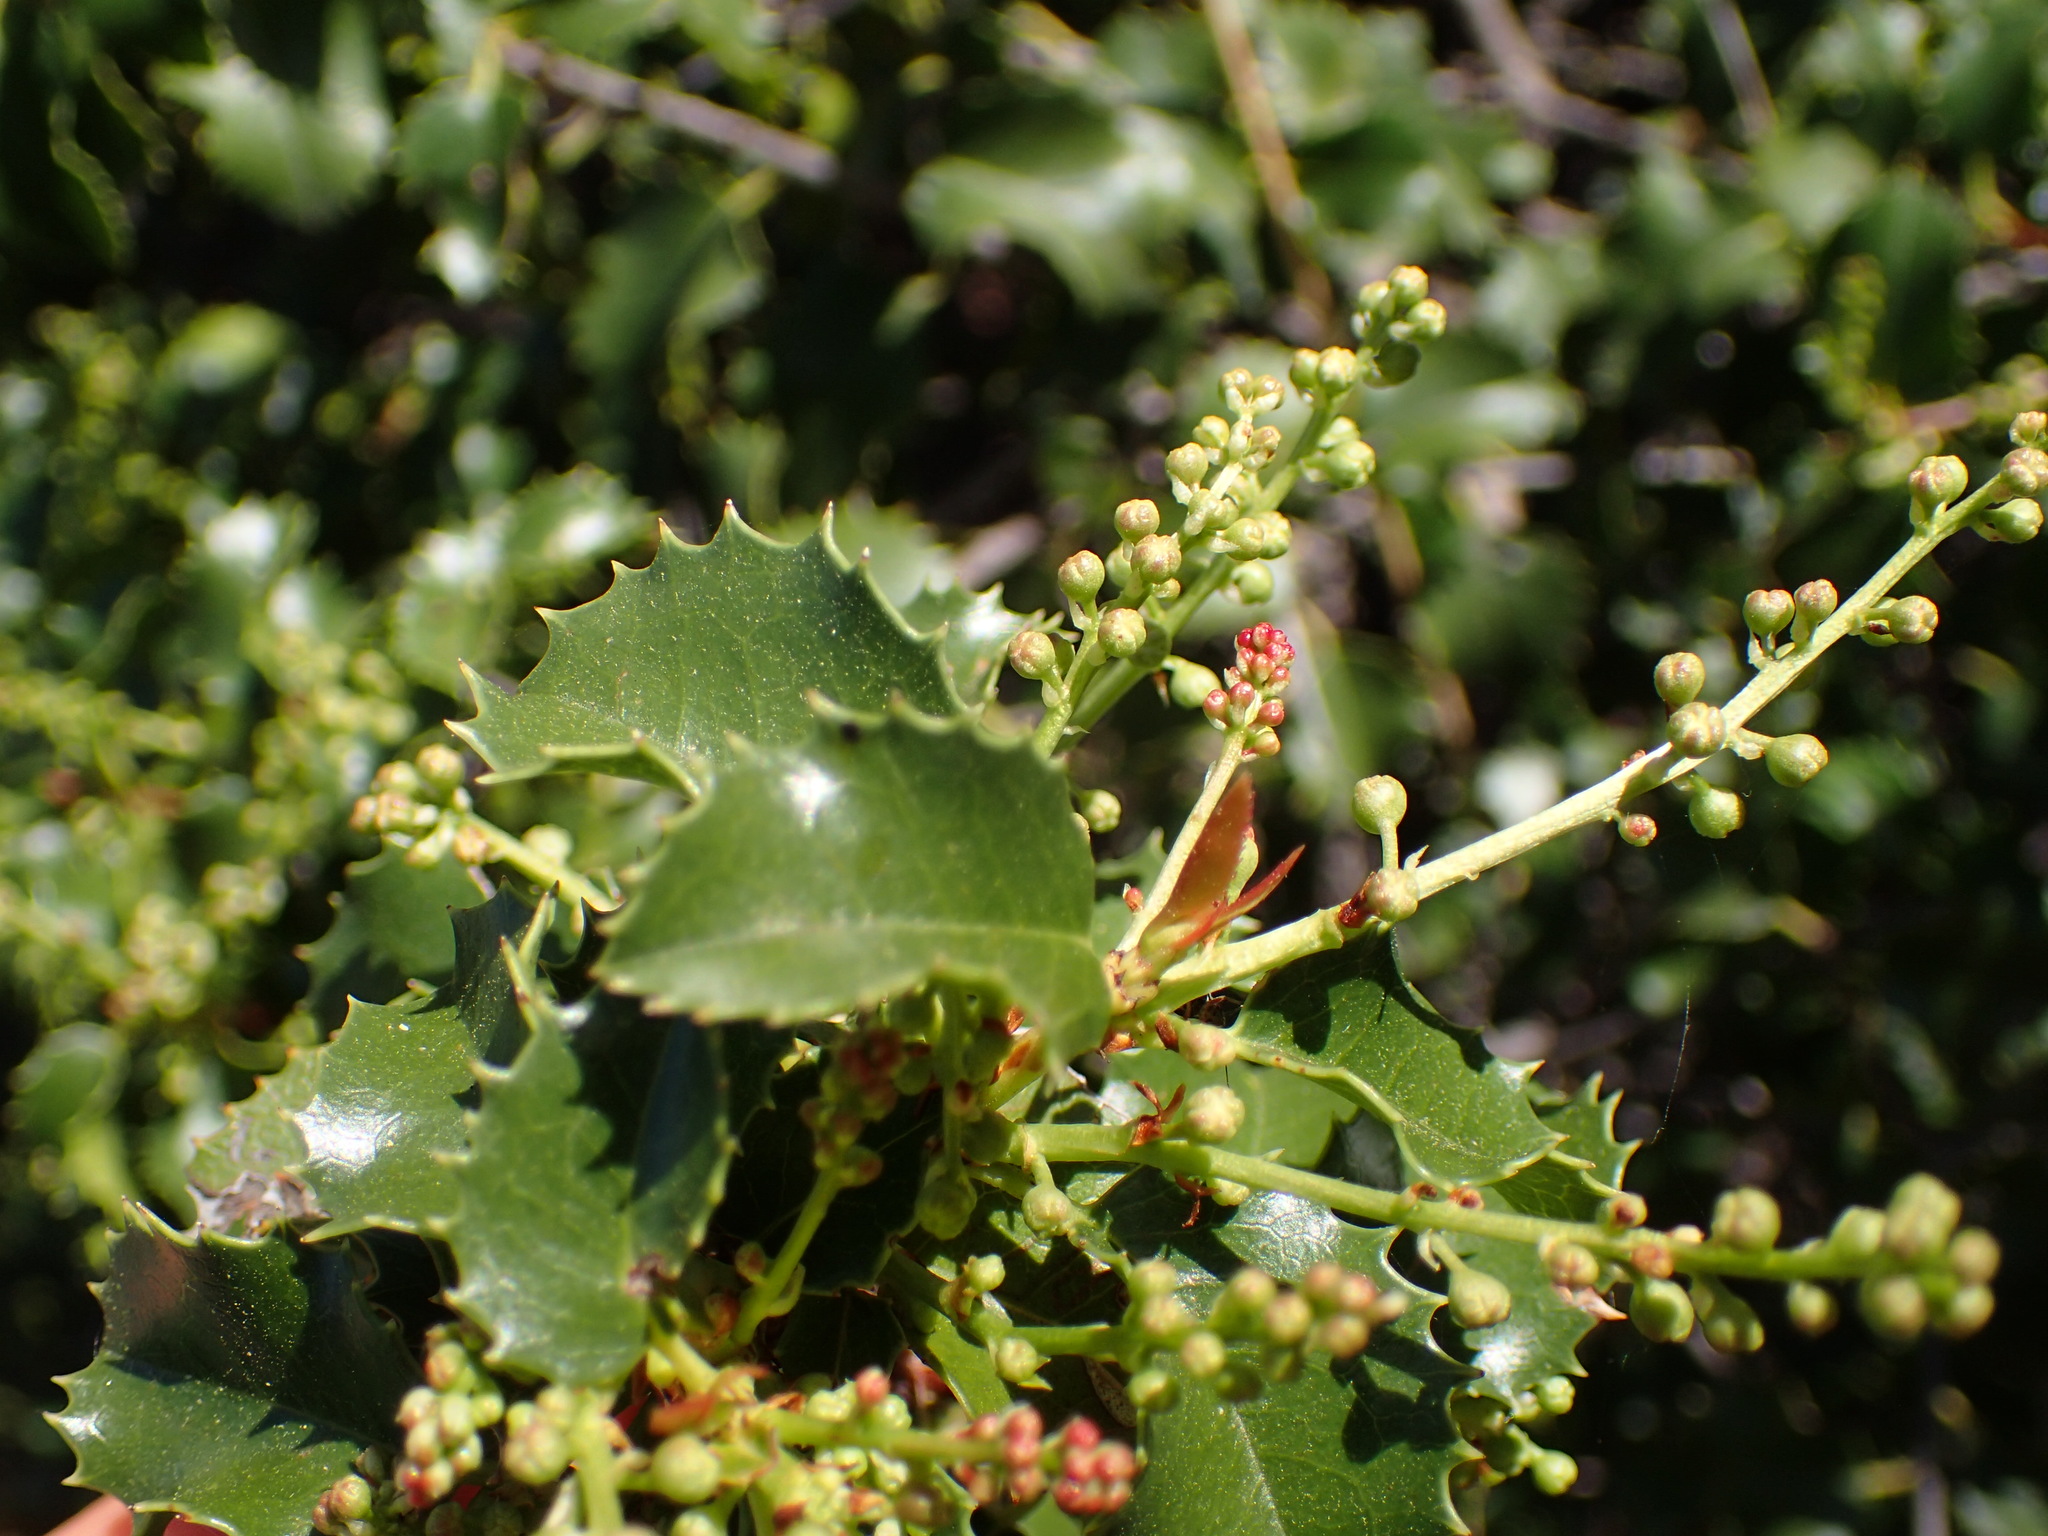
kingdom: Plantae
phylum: Tracheophyta
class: Magnoliopsida
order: Rosales
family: Rosaceae
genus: Prunus
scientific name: Prunus ilicifolia
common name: Hollyleaf cherry
